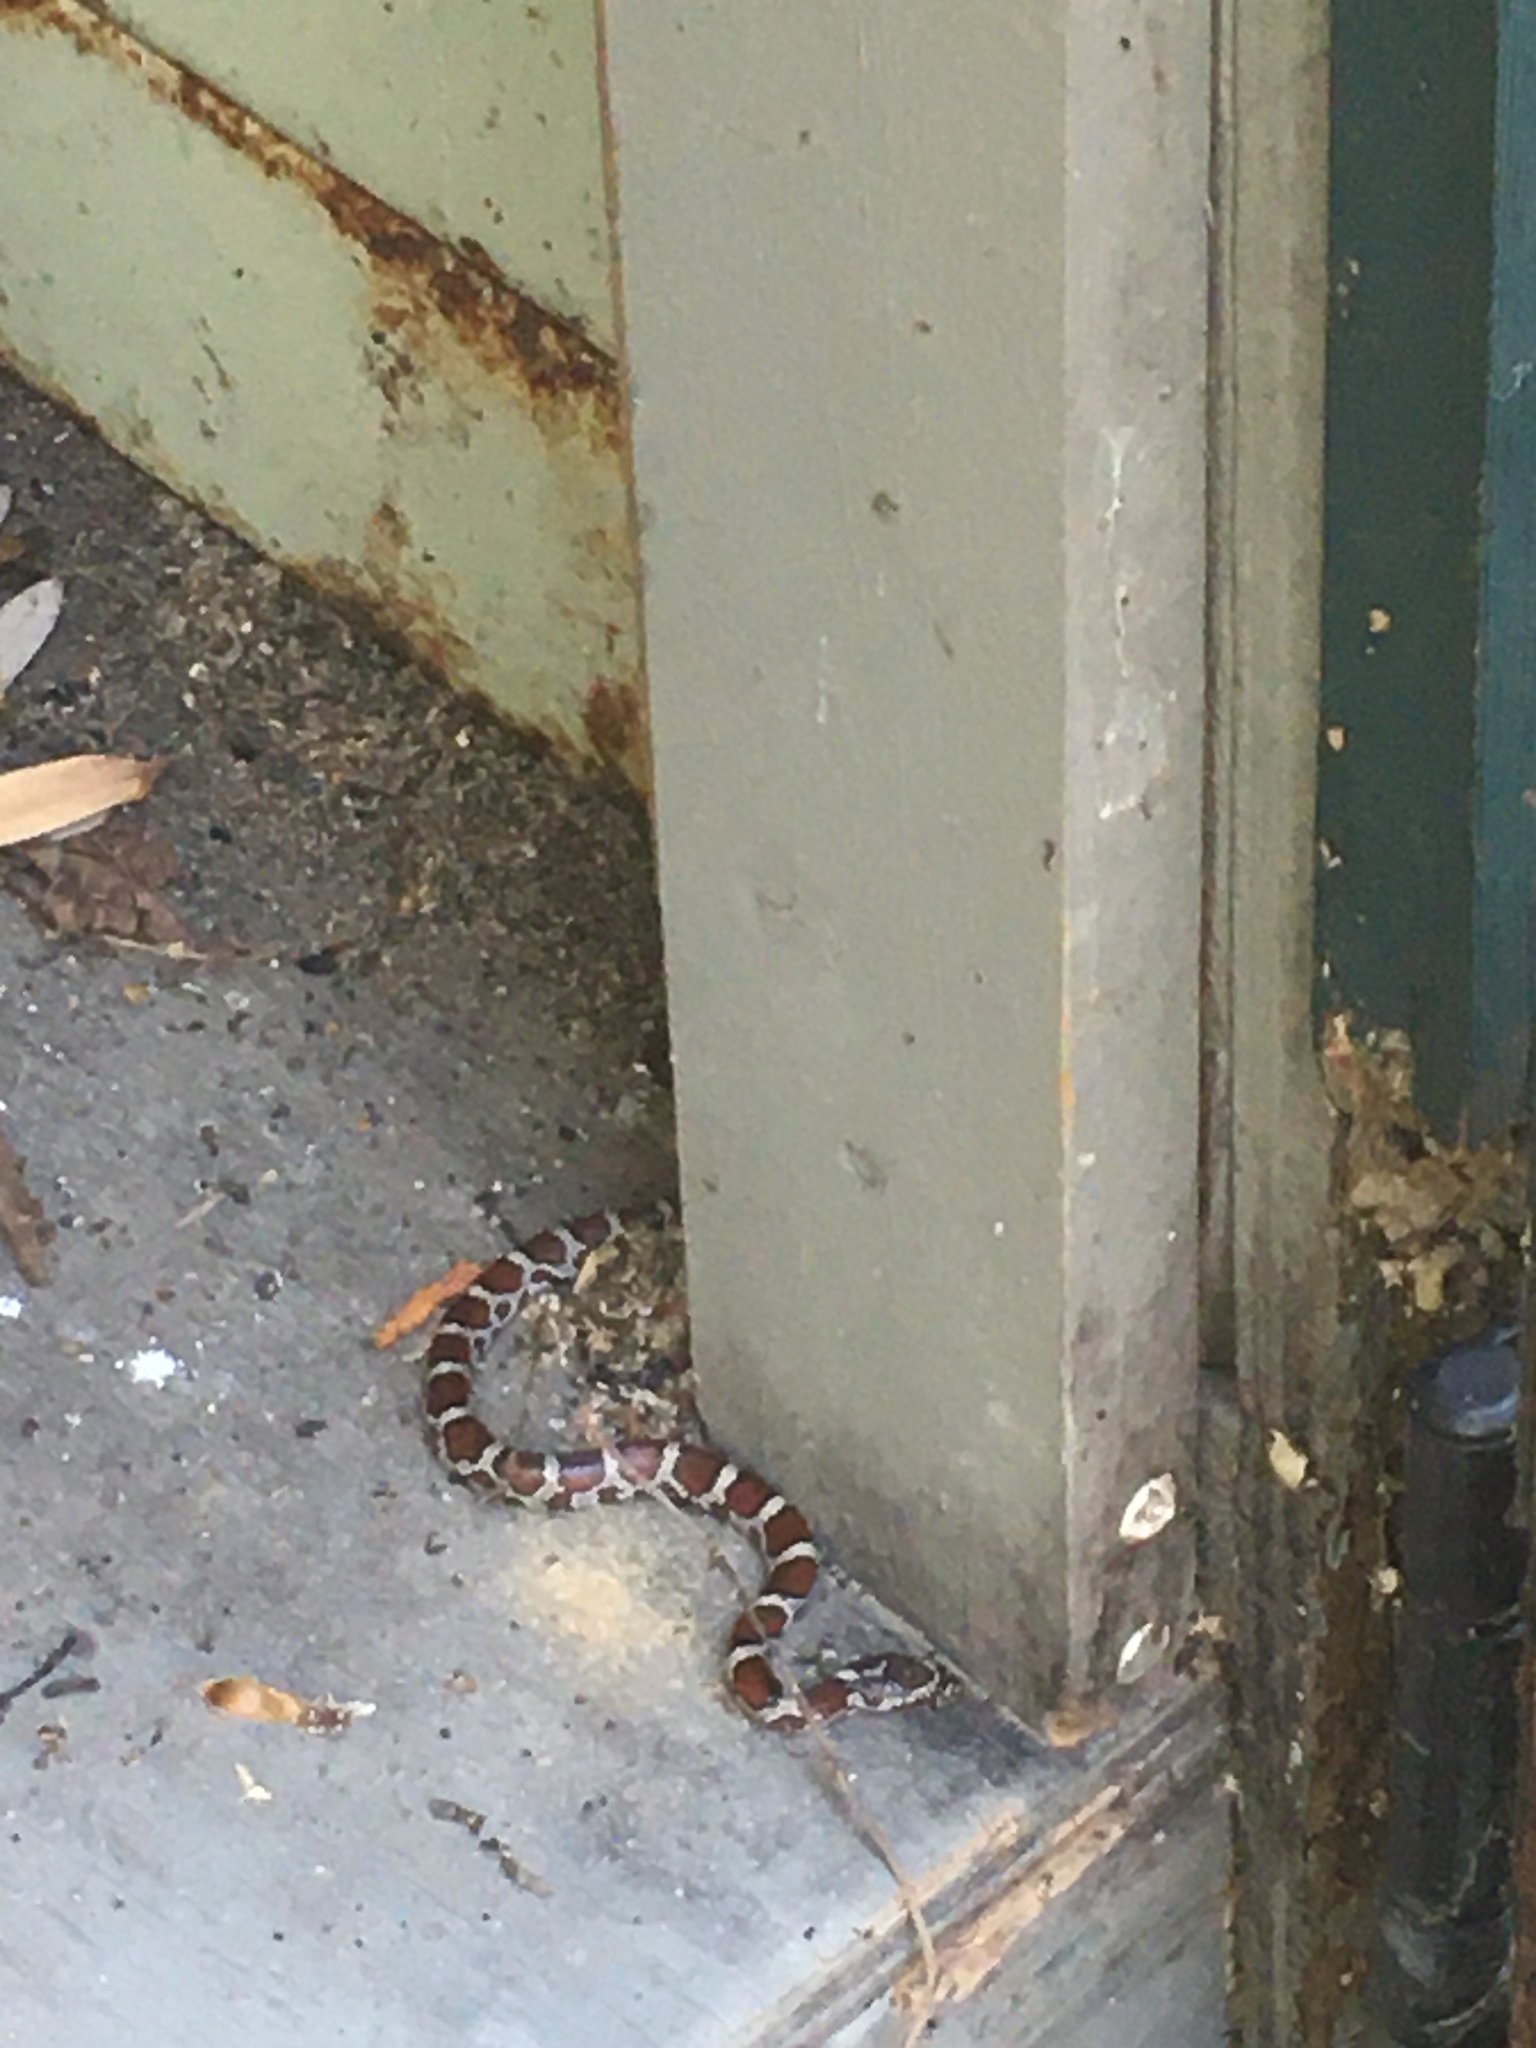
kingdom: Animalia
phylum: Chordata
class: Squamata
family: Colubridae
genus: Lampropeltis
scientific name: Lampropeltis triangulum
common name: Eastern milksnake
